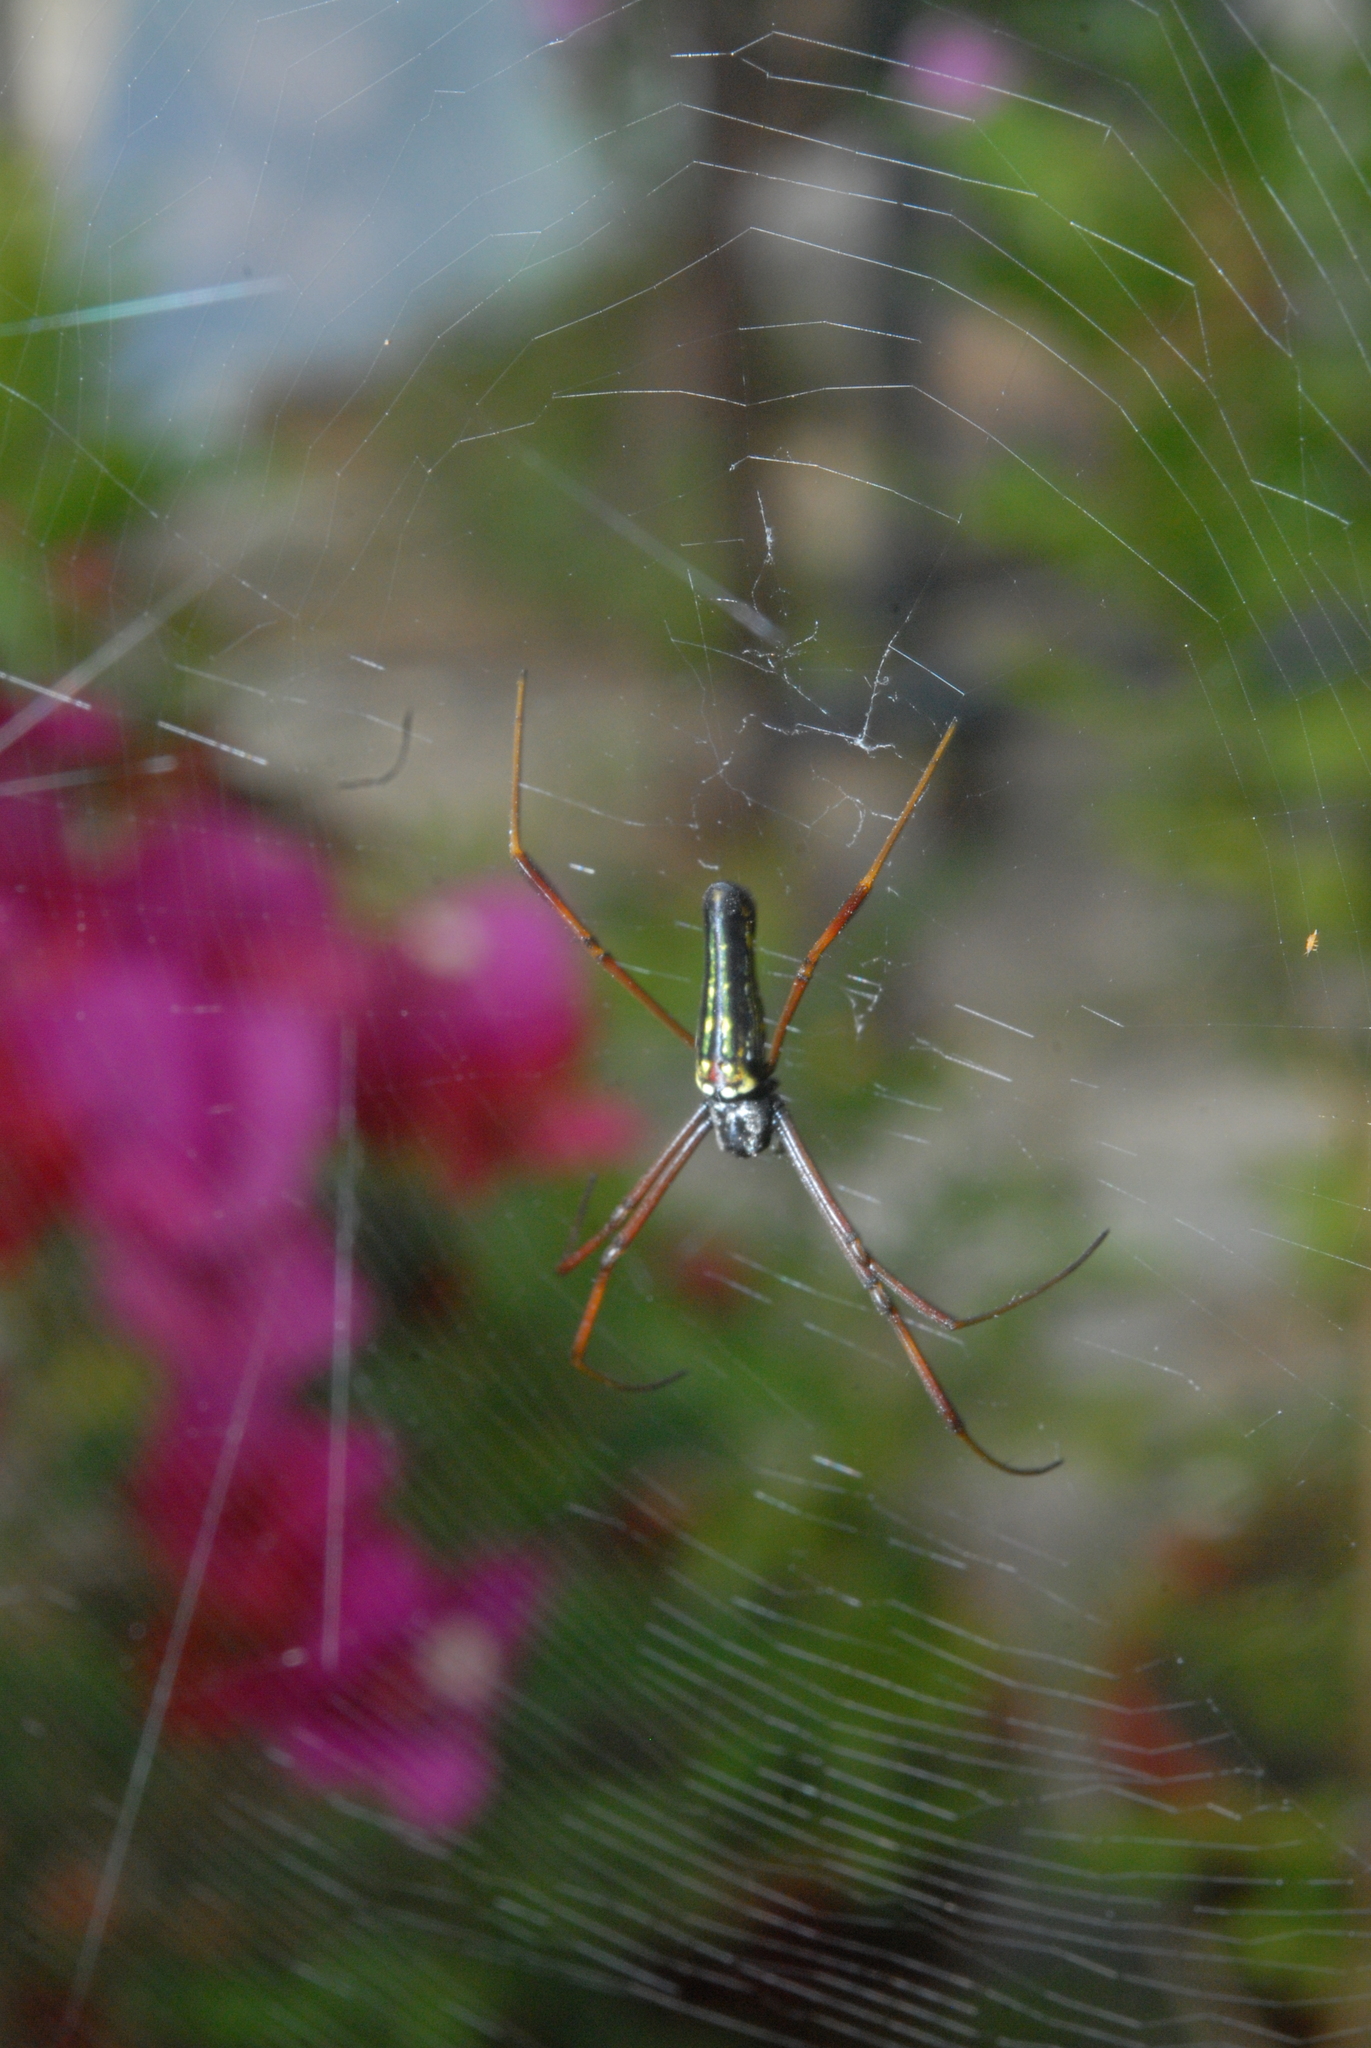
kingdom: Animalia
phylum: Arthropoda
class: Arachnida
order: Araneae
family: Araneidae
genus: Nephila
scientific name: Nephila pilipes
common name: Giant golden orb weaver
